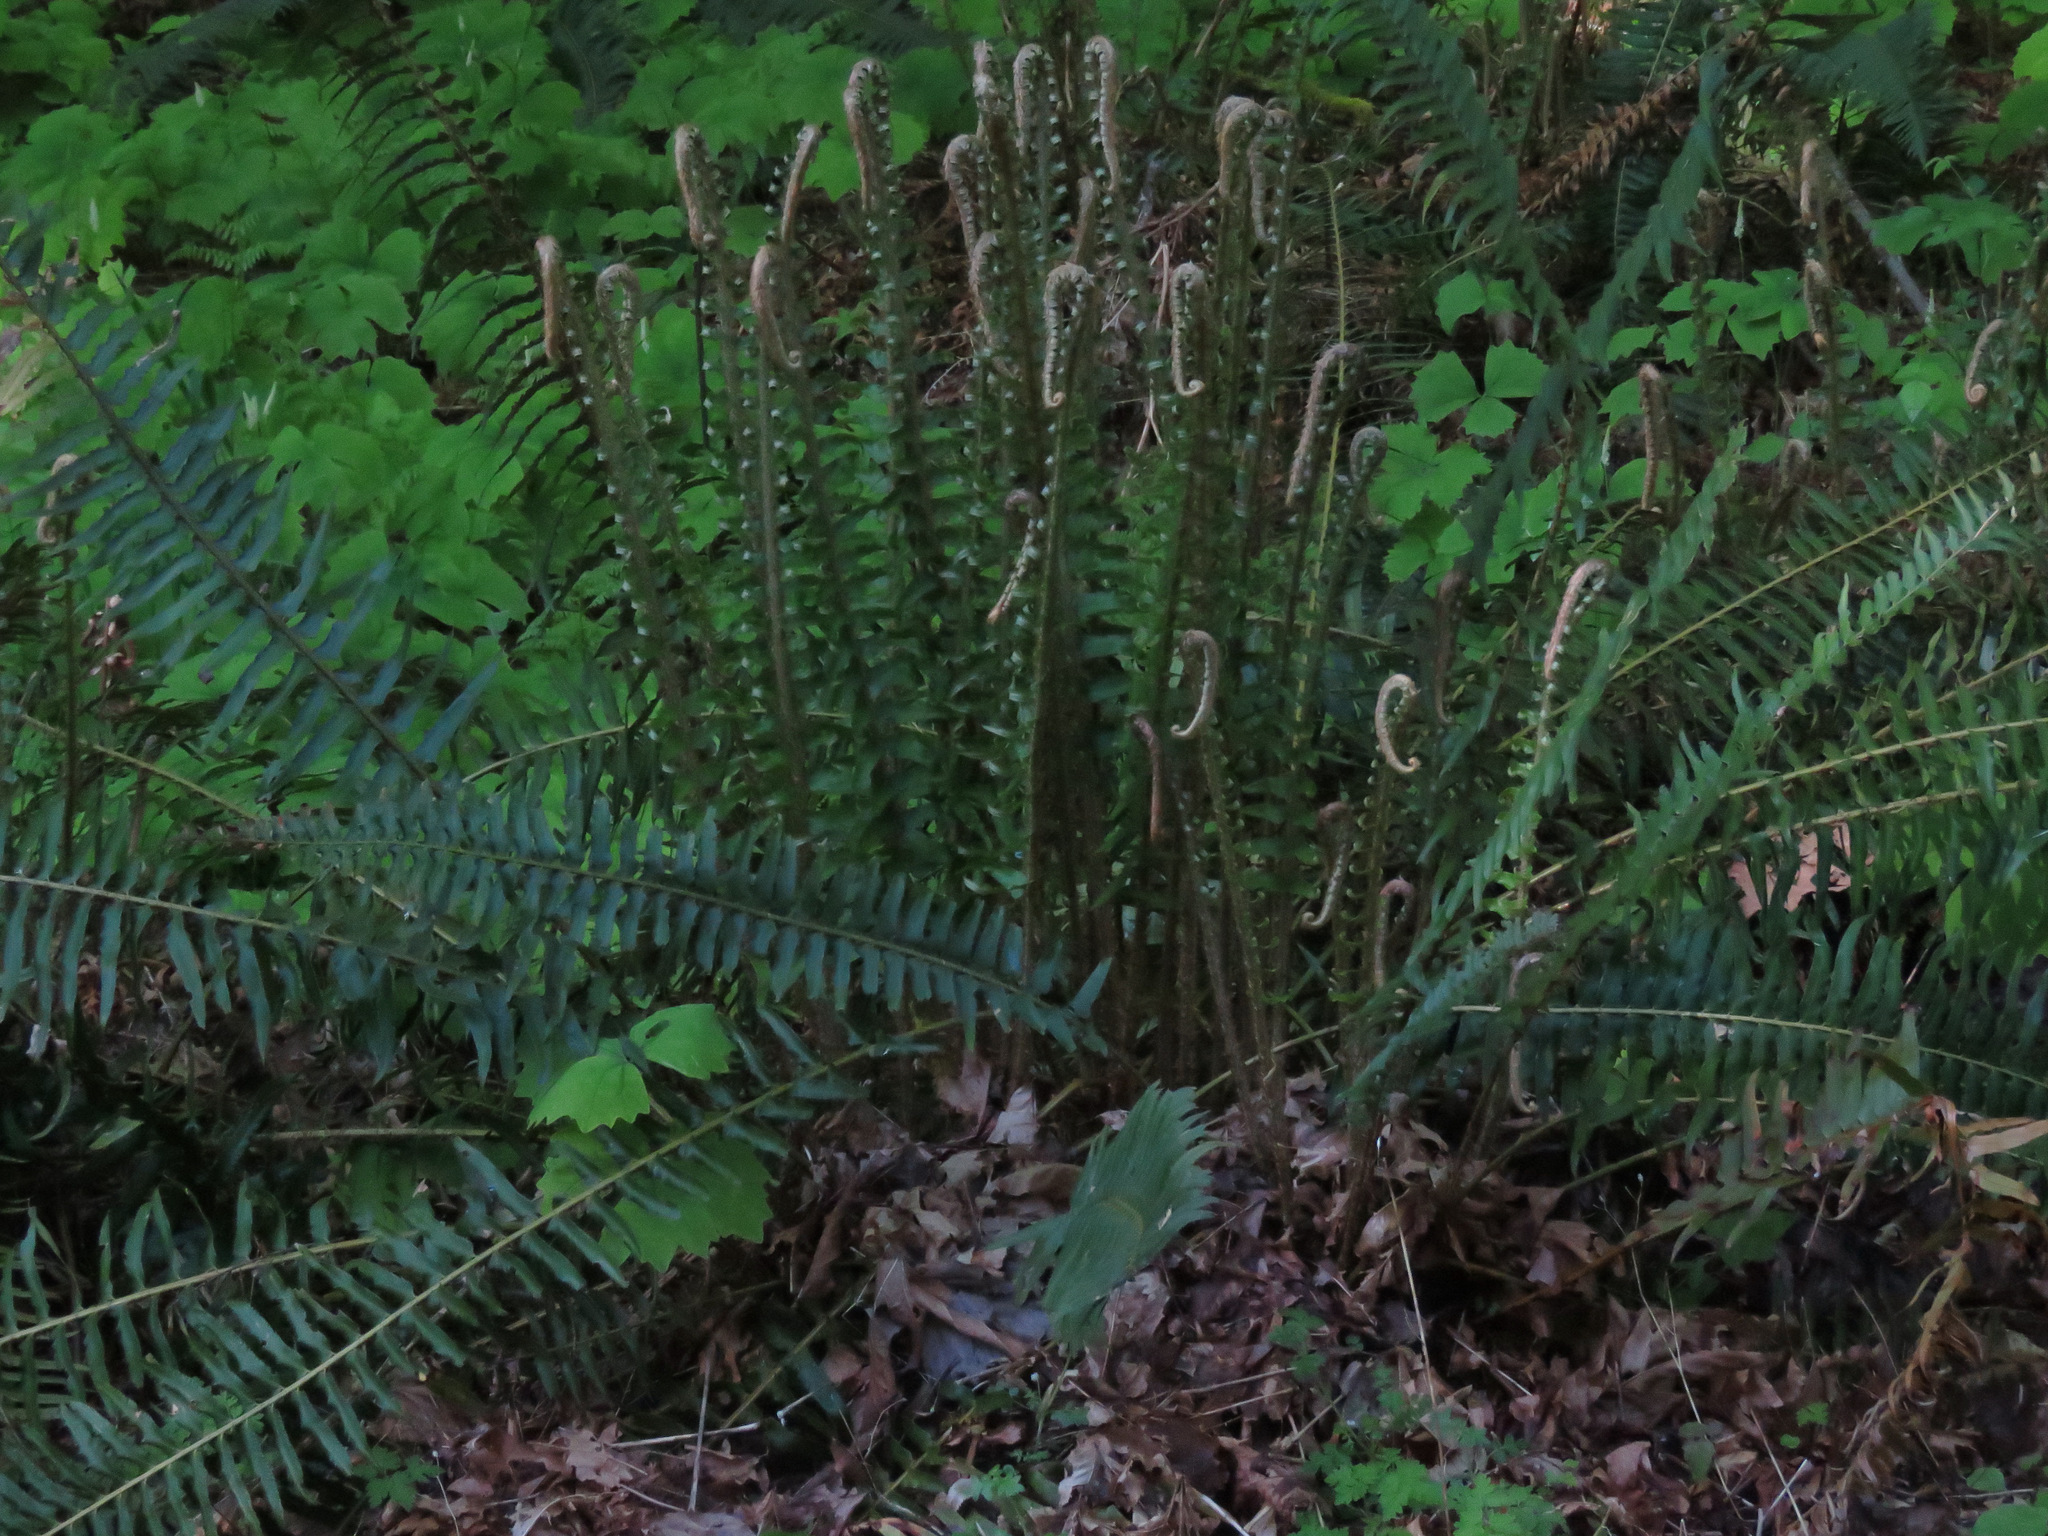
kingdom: Plantae
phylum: Tracheophyta
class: Polypodiopsida
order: Polypodiales
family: Dryopteridaceae
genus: Polystichum
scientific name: Polystichum munitum
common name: Western sword-fern
